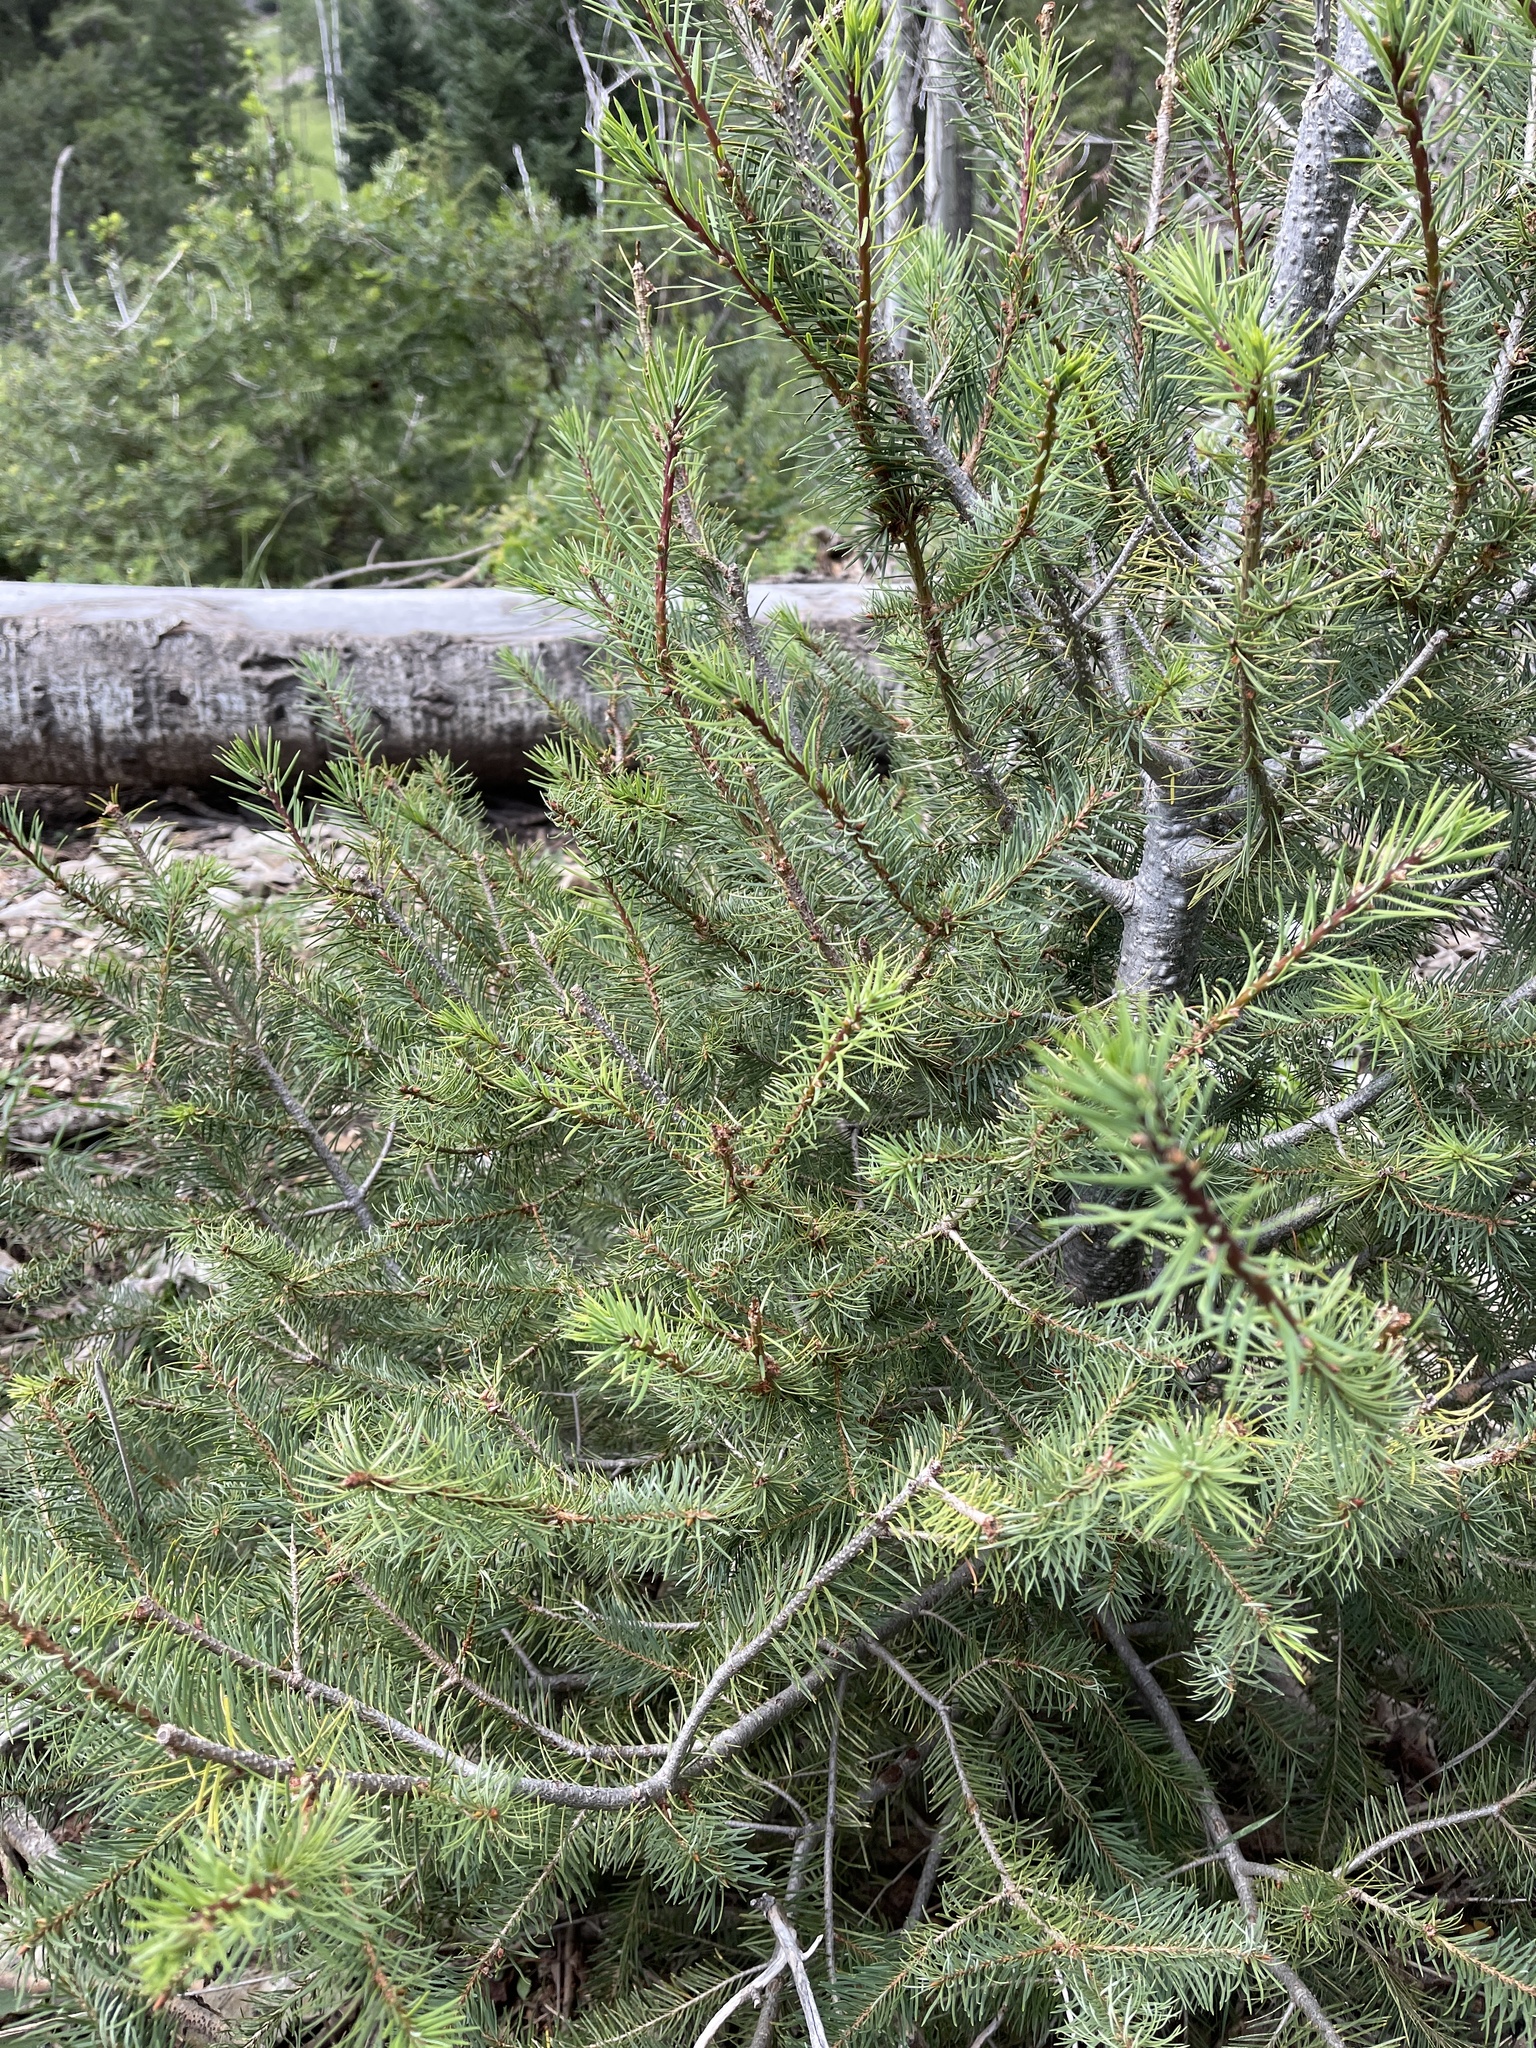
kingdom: Plantae
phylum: Tracheophyta
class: Pinopsida
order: Pinales
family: Pinaceae
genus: Pseudotsuga
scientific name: Pseudotsuga menziesii
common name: Douglas fir
